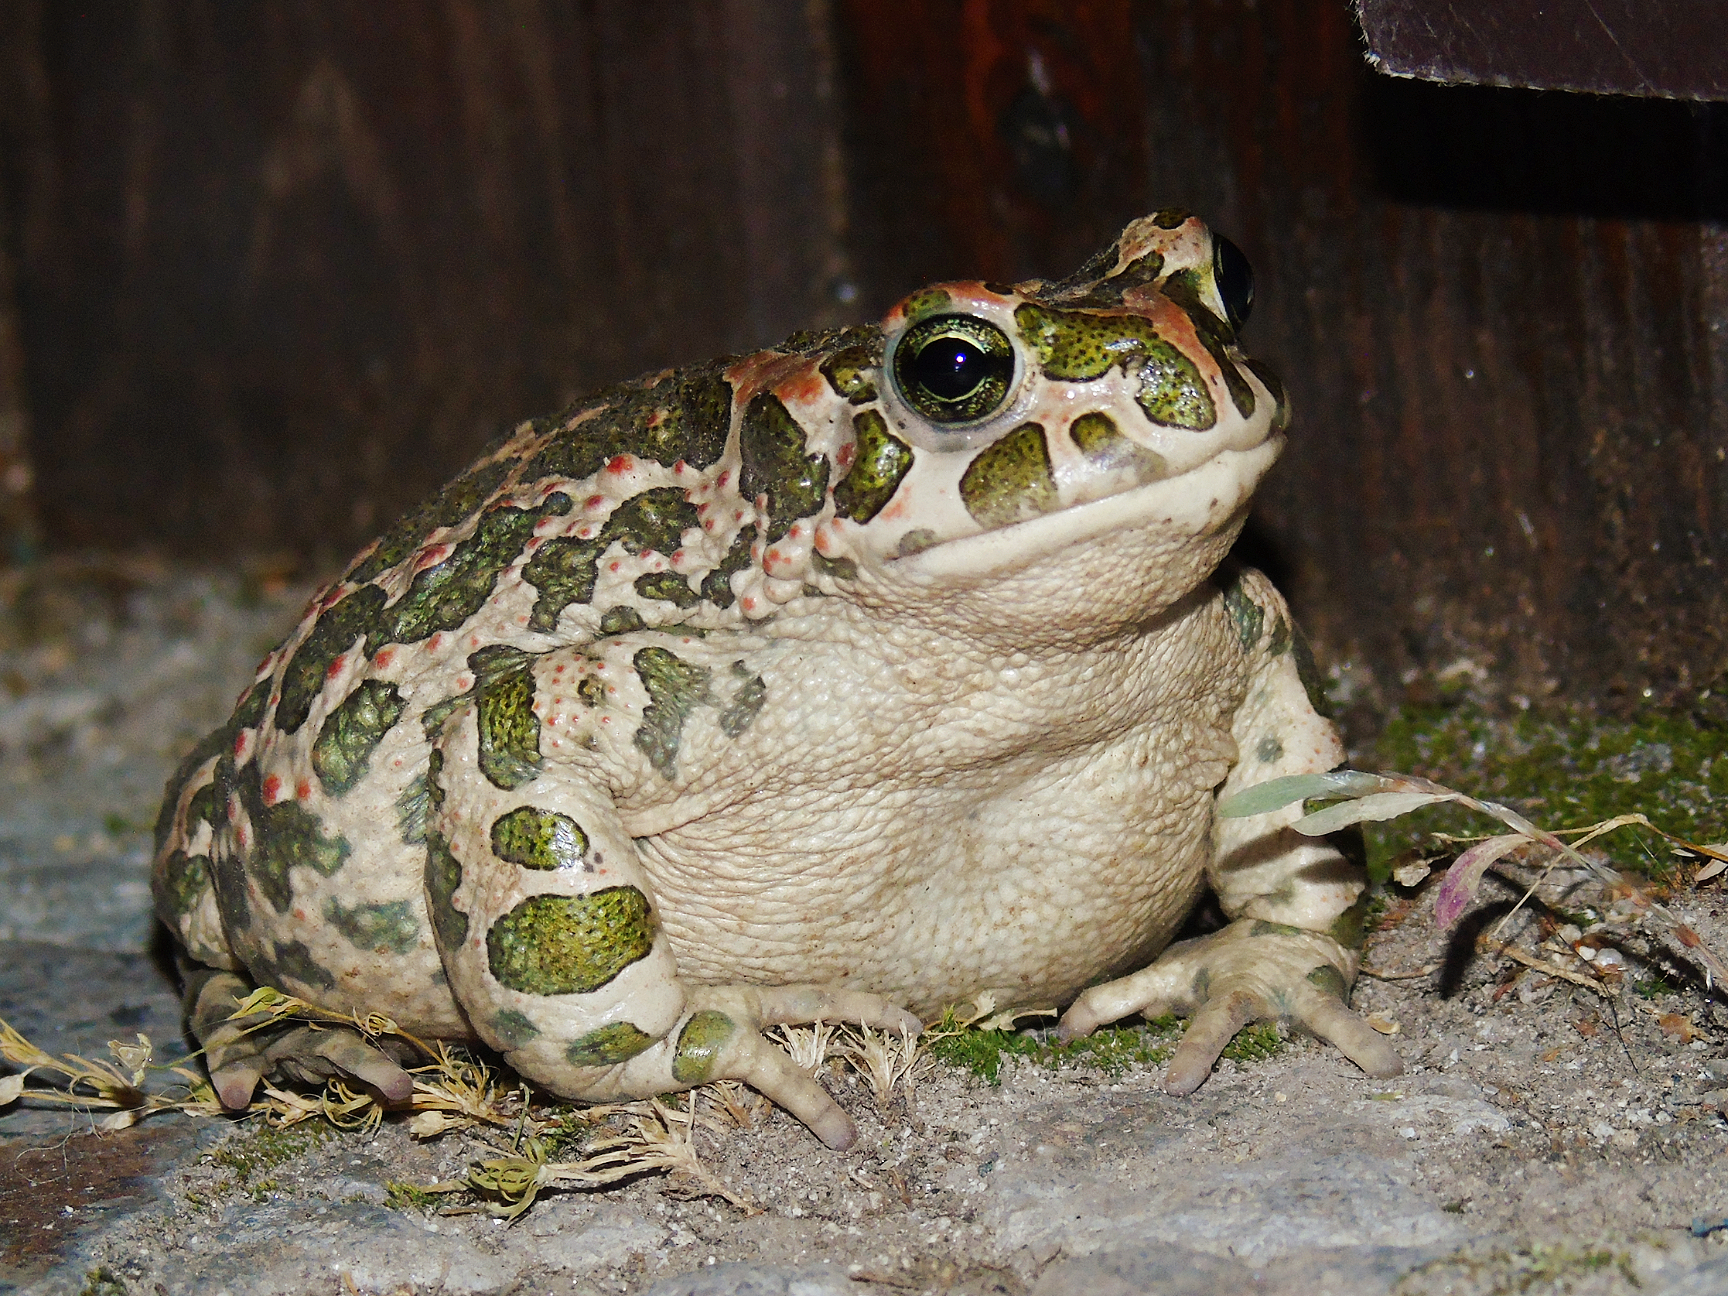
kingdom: Animalia
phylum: Chordata
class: Amphibia
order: Anura
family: Bufonidae
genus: Bufotes
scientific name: Bufotes viridis
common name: European green toad
